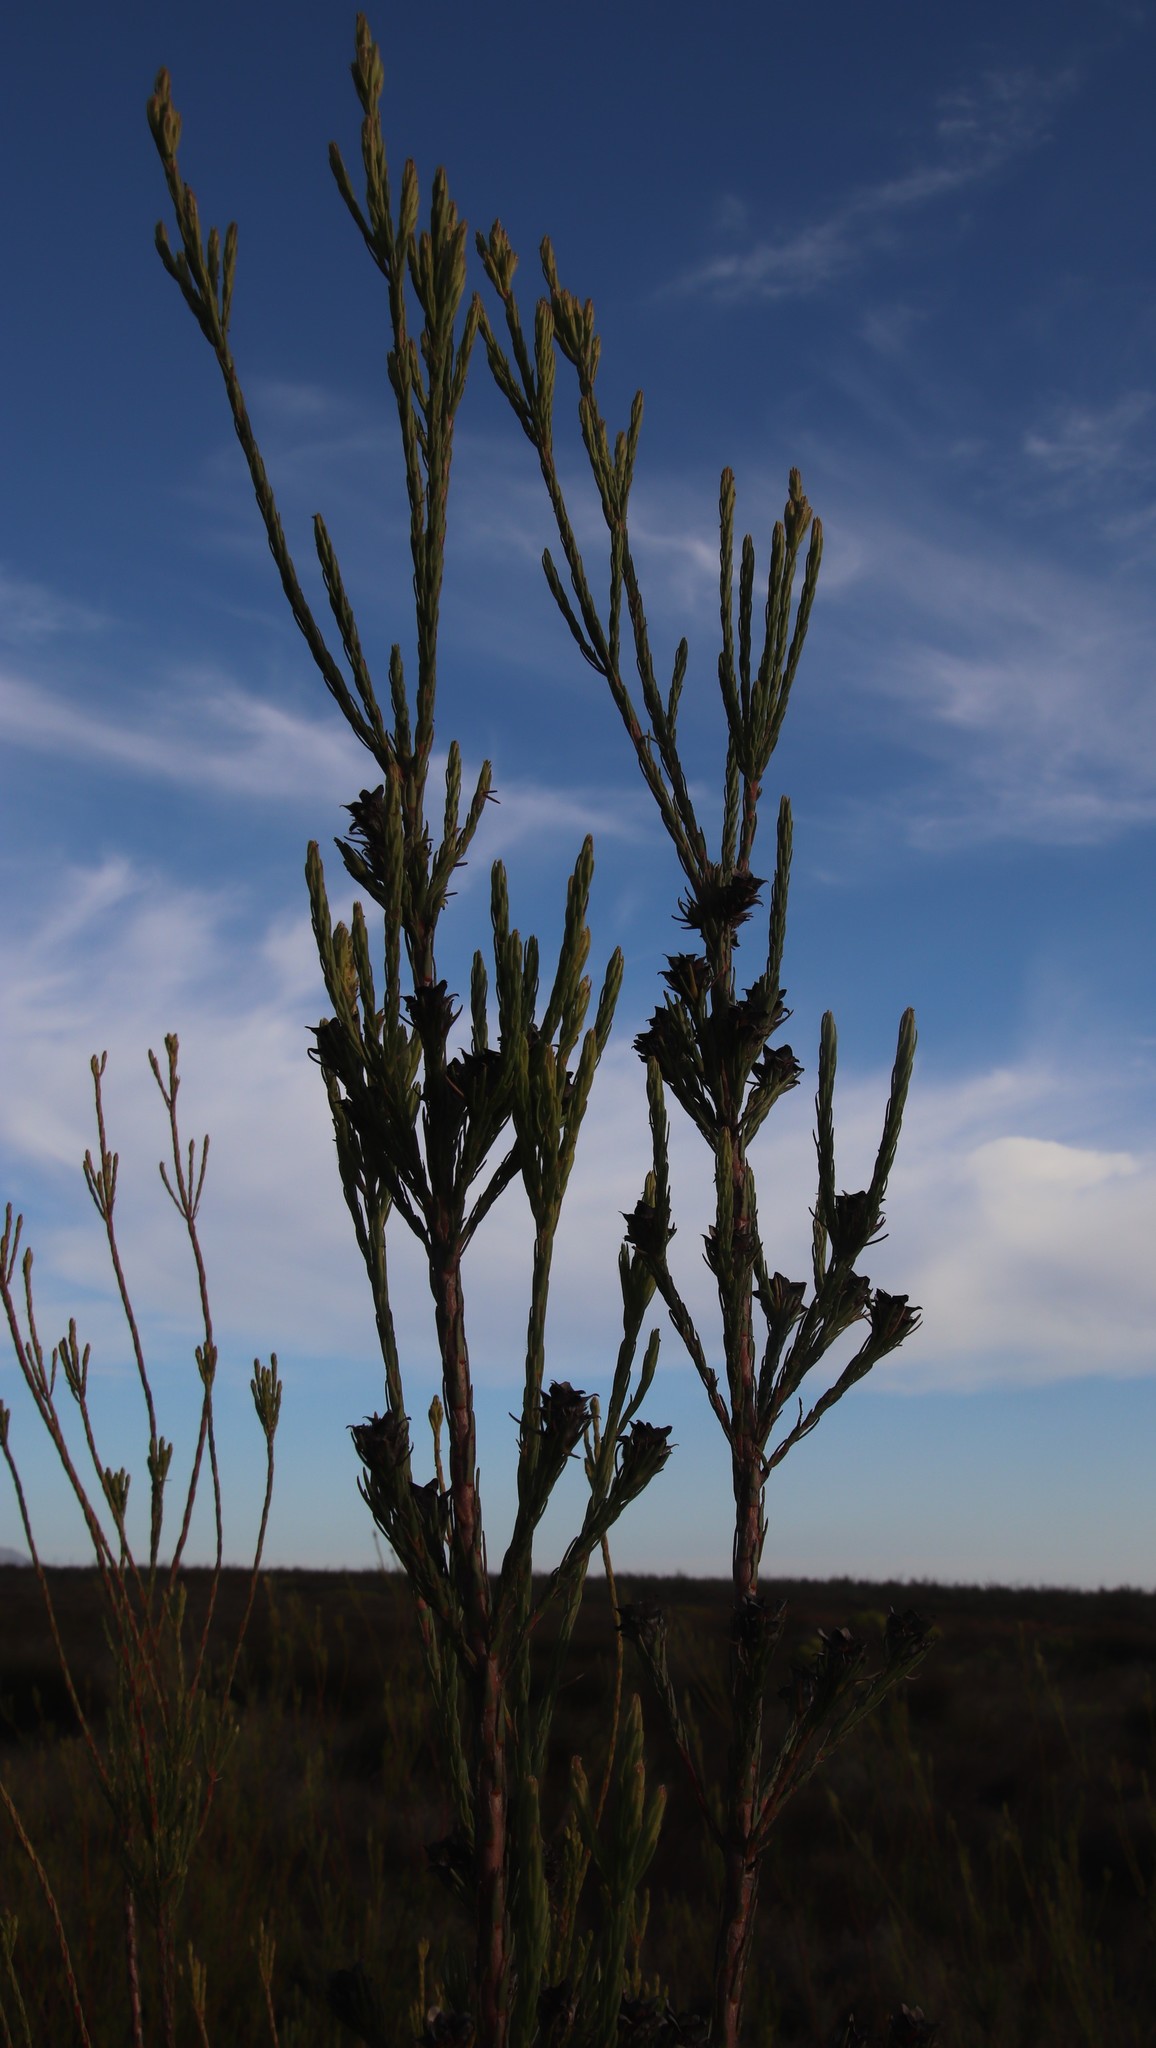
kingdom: Plantae
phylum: Tracheophyta
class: Magnoliopsida
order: Proteales
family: Proteaceae
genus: Leucadendron
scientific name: Leucadendron corymbosum
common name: Swartveld conebush
